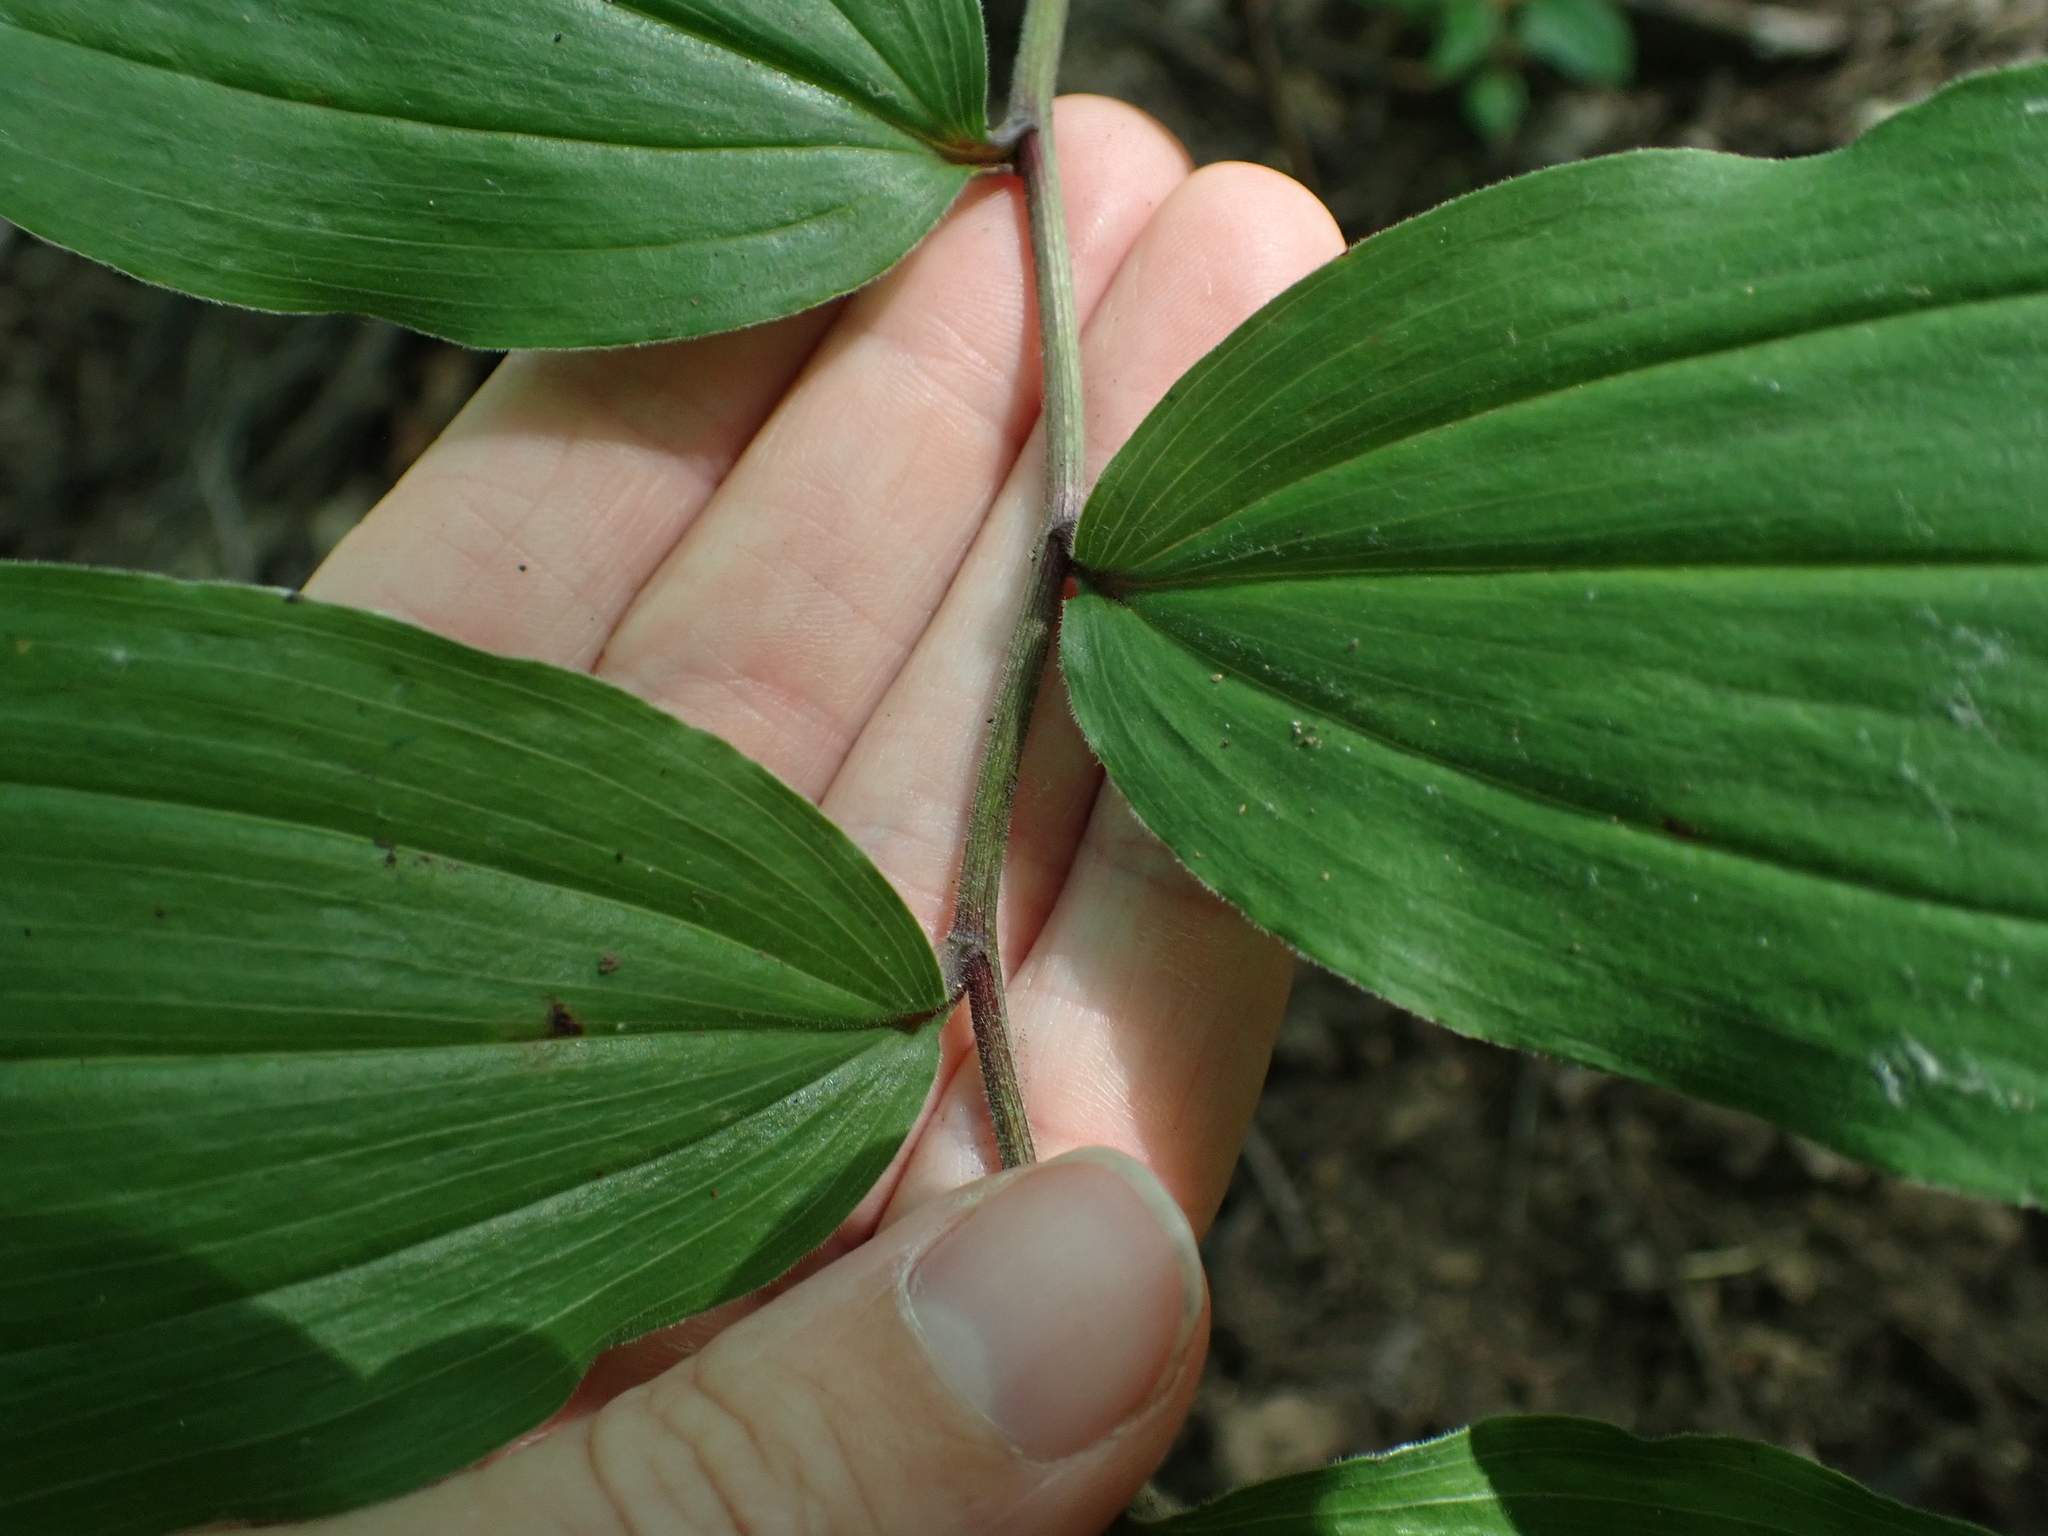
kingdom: Plantae
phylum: Tracheophyta
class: Liliopsida
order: Asparagales
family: Asparagaceae
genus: Maianthemum
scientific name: Maianthemum racemosum
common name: False spikenard
